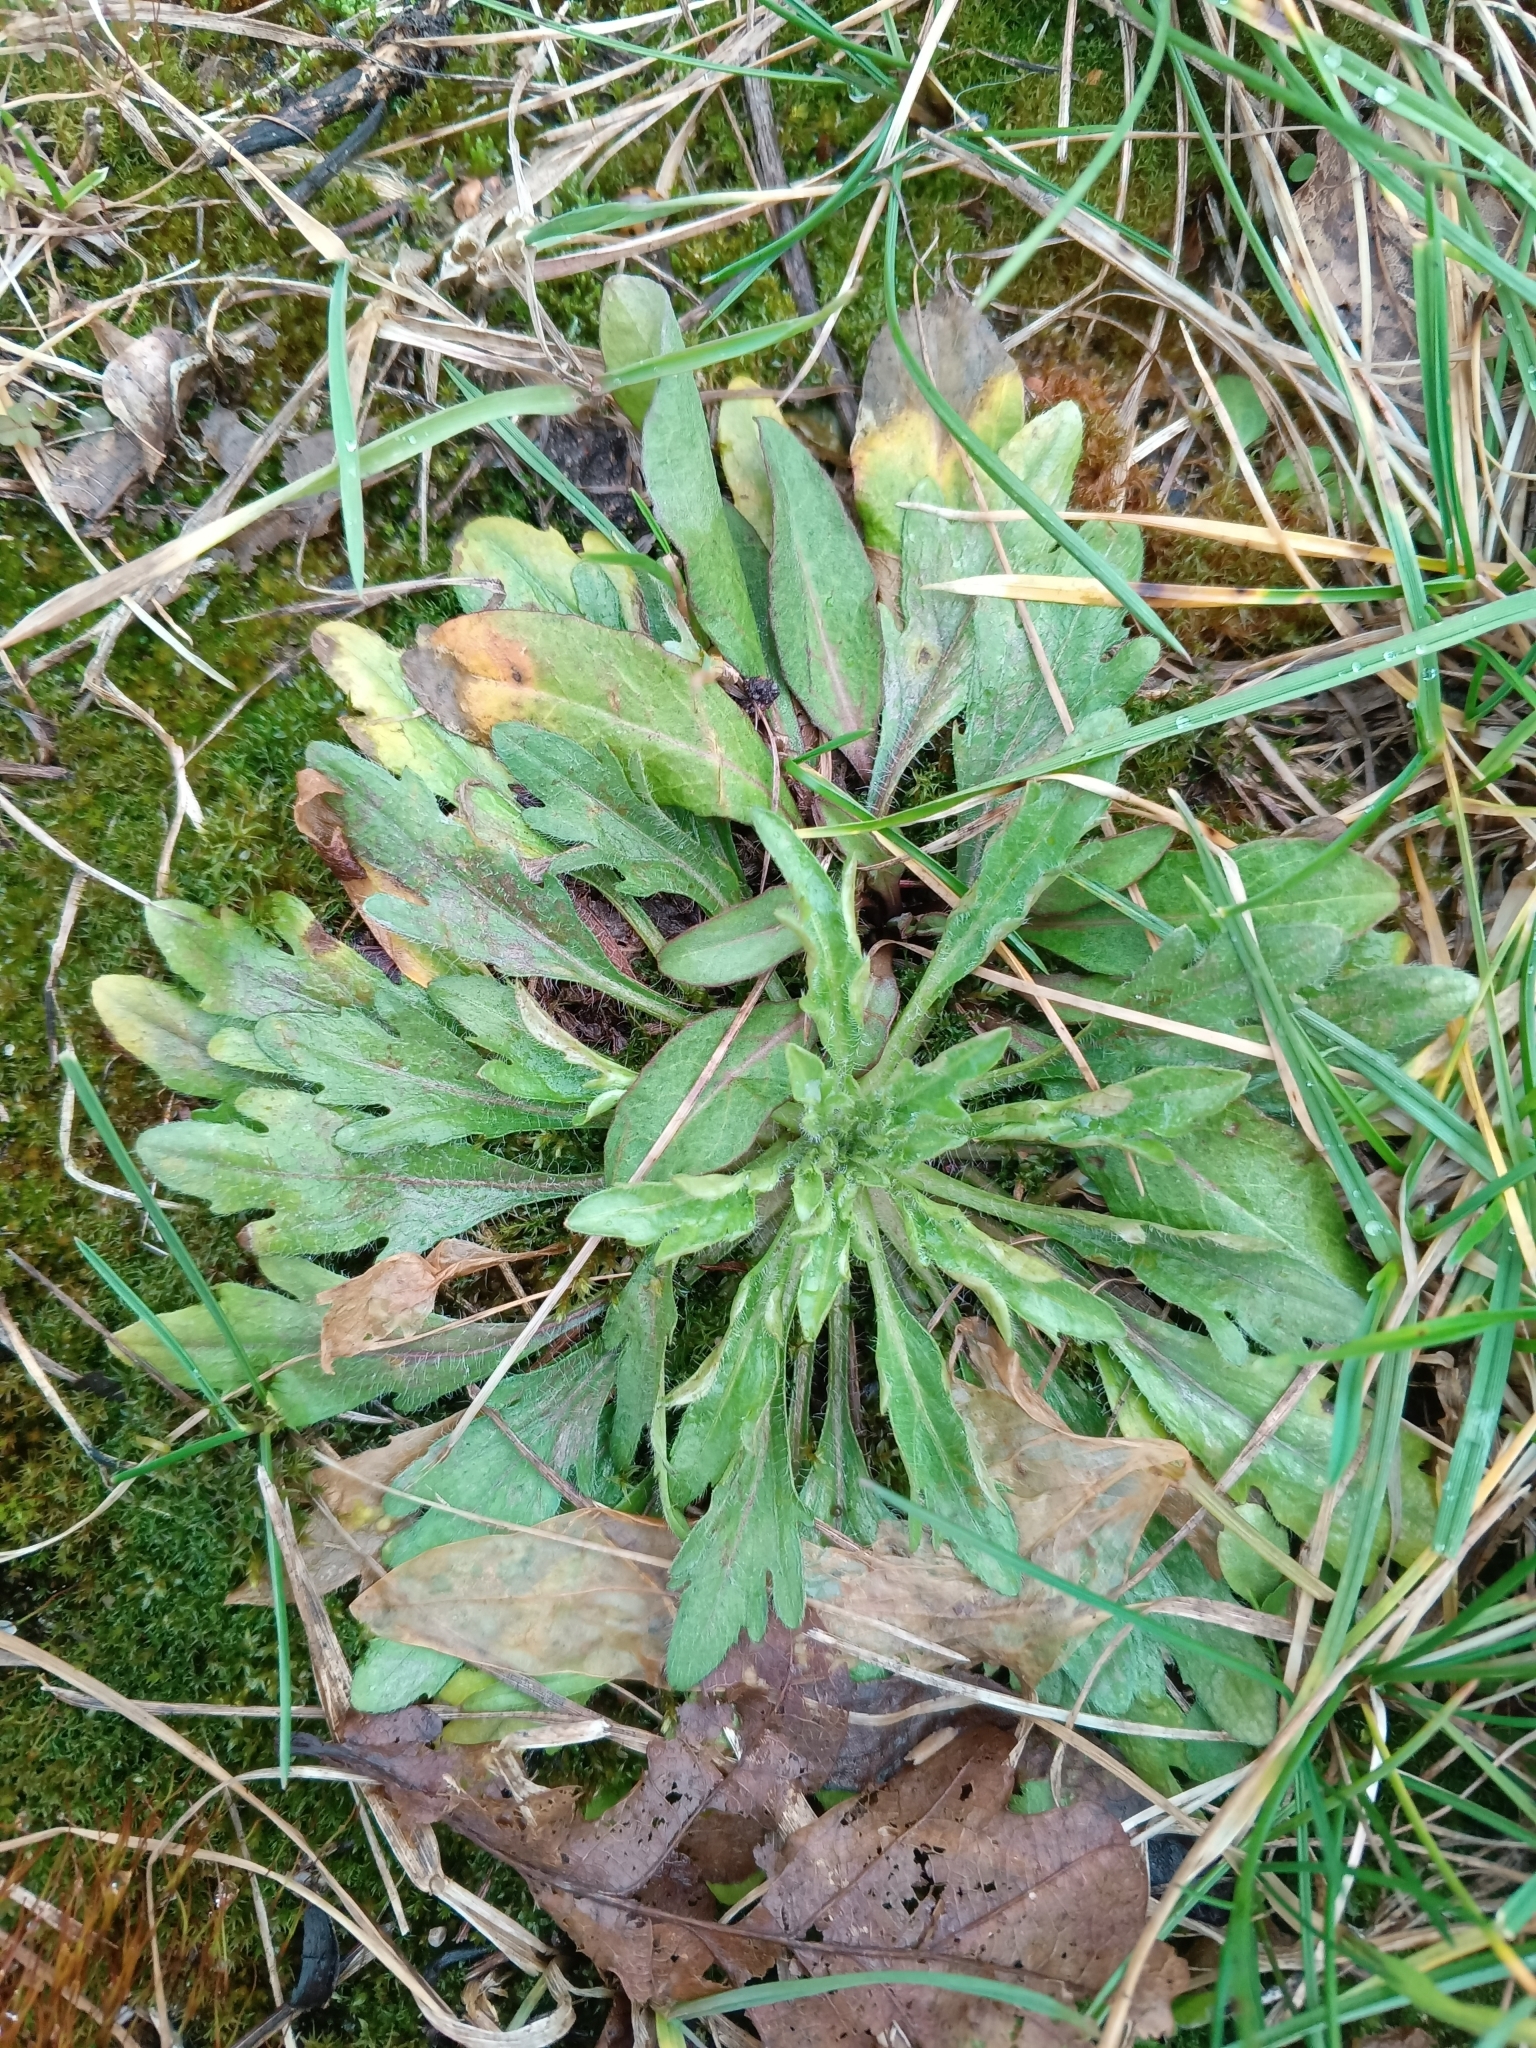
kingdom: Plantae
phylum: Tracheophyta
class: Magnoliopsida
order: Asterales
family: Asteraceae
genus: Erigeron
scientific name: Erigeron canadensis
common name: Canadian fleabane
